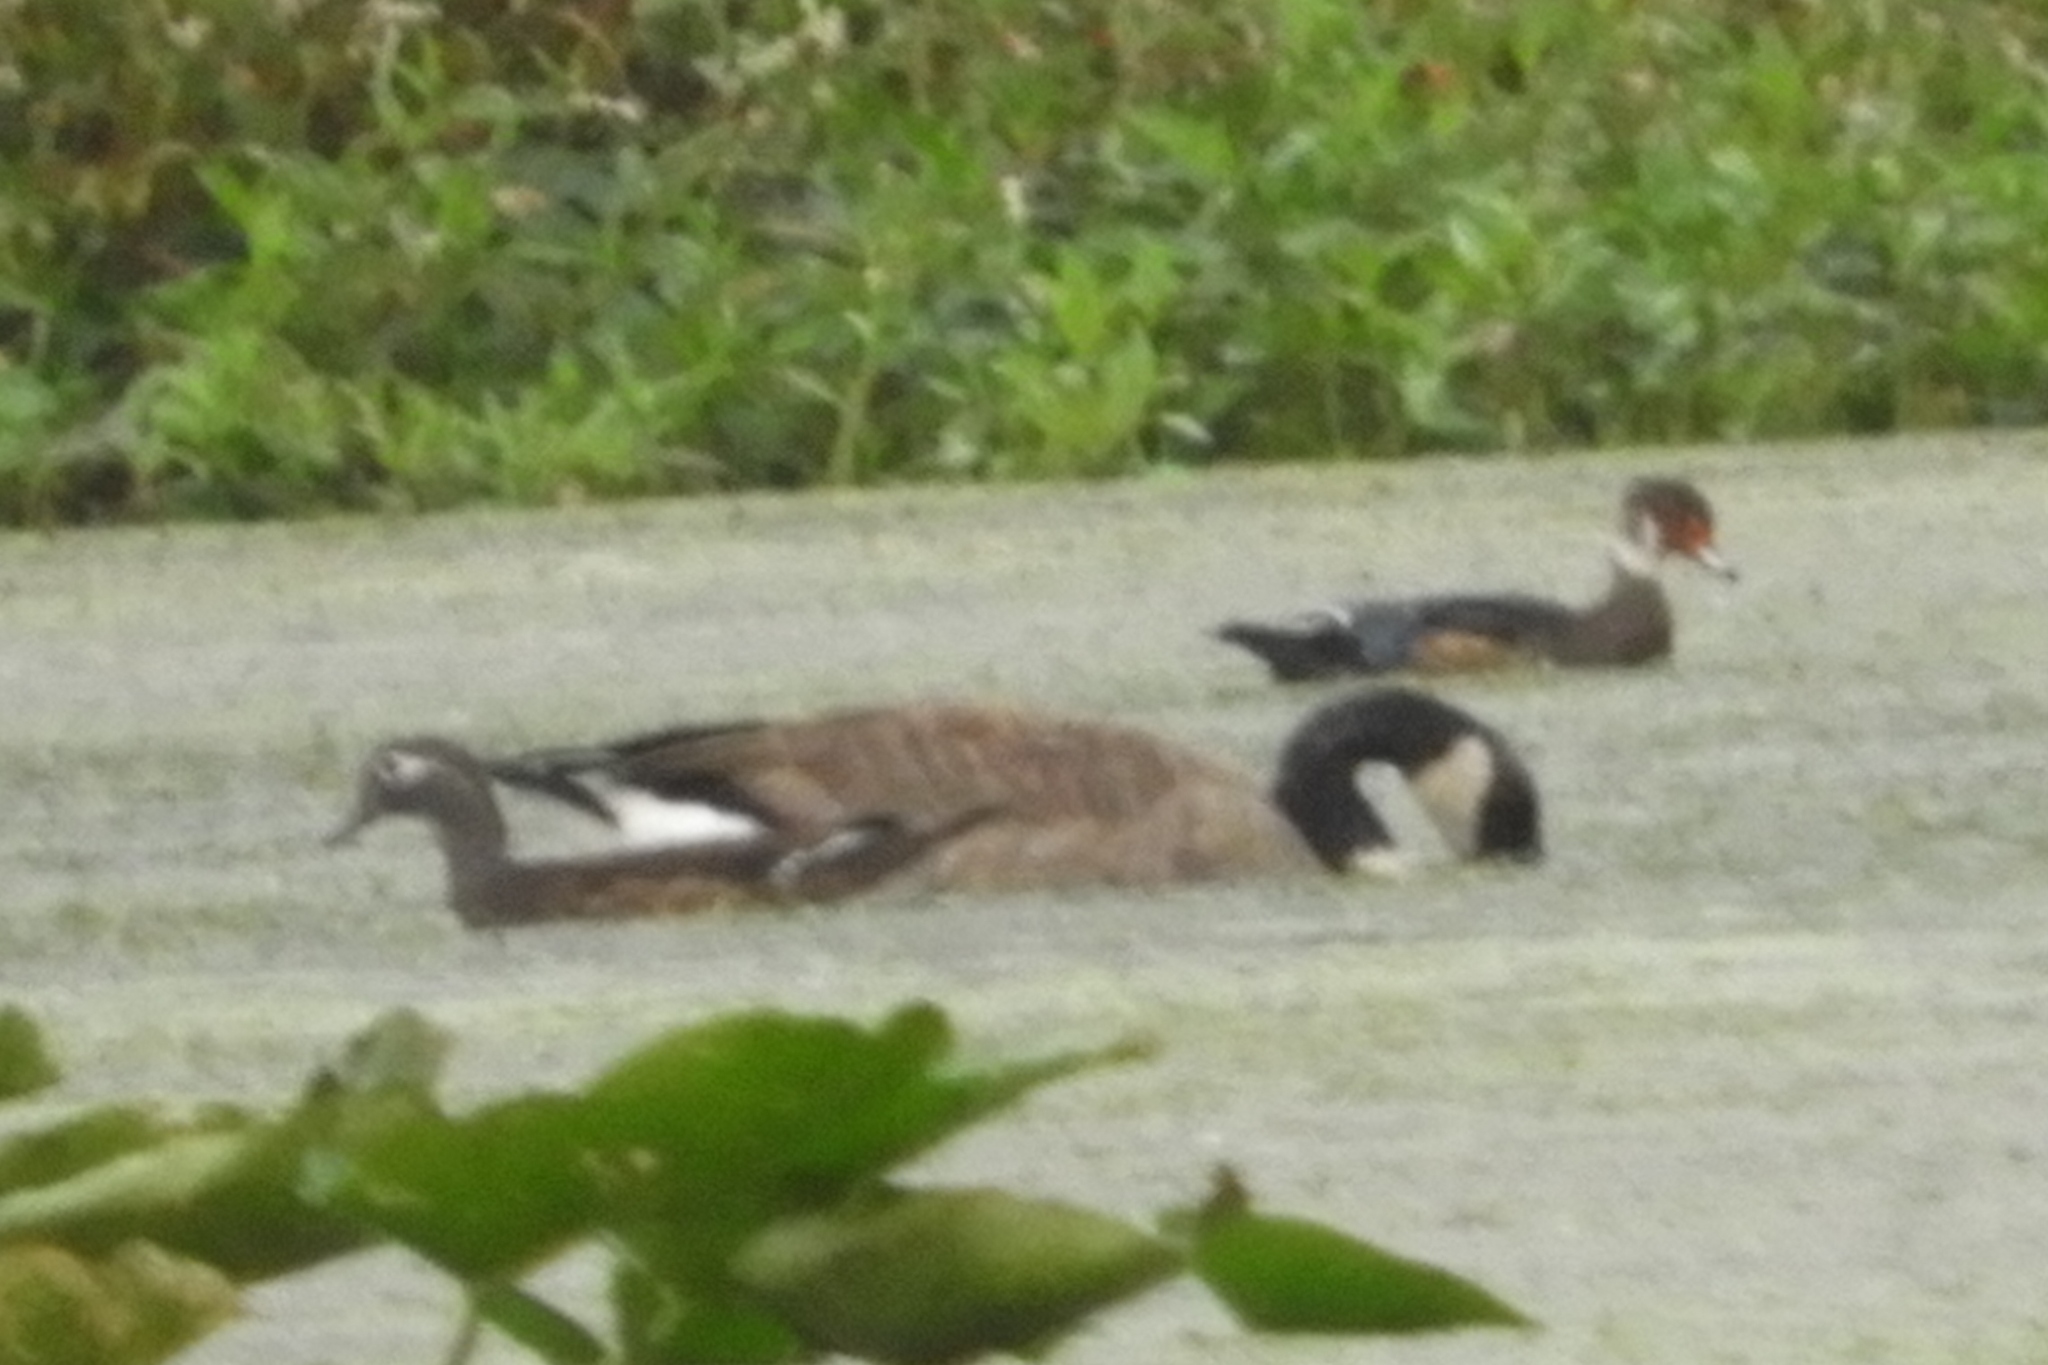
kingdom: Animalia
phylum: Chordata
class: Aves
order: Anseriformes
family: Anatidae
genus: Aix
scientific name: Aix sponsa
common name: Wood duck
